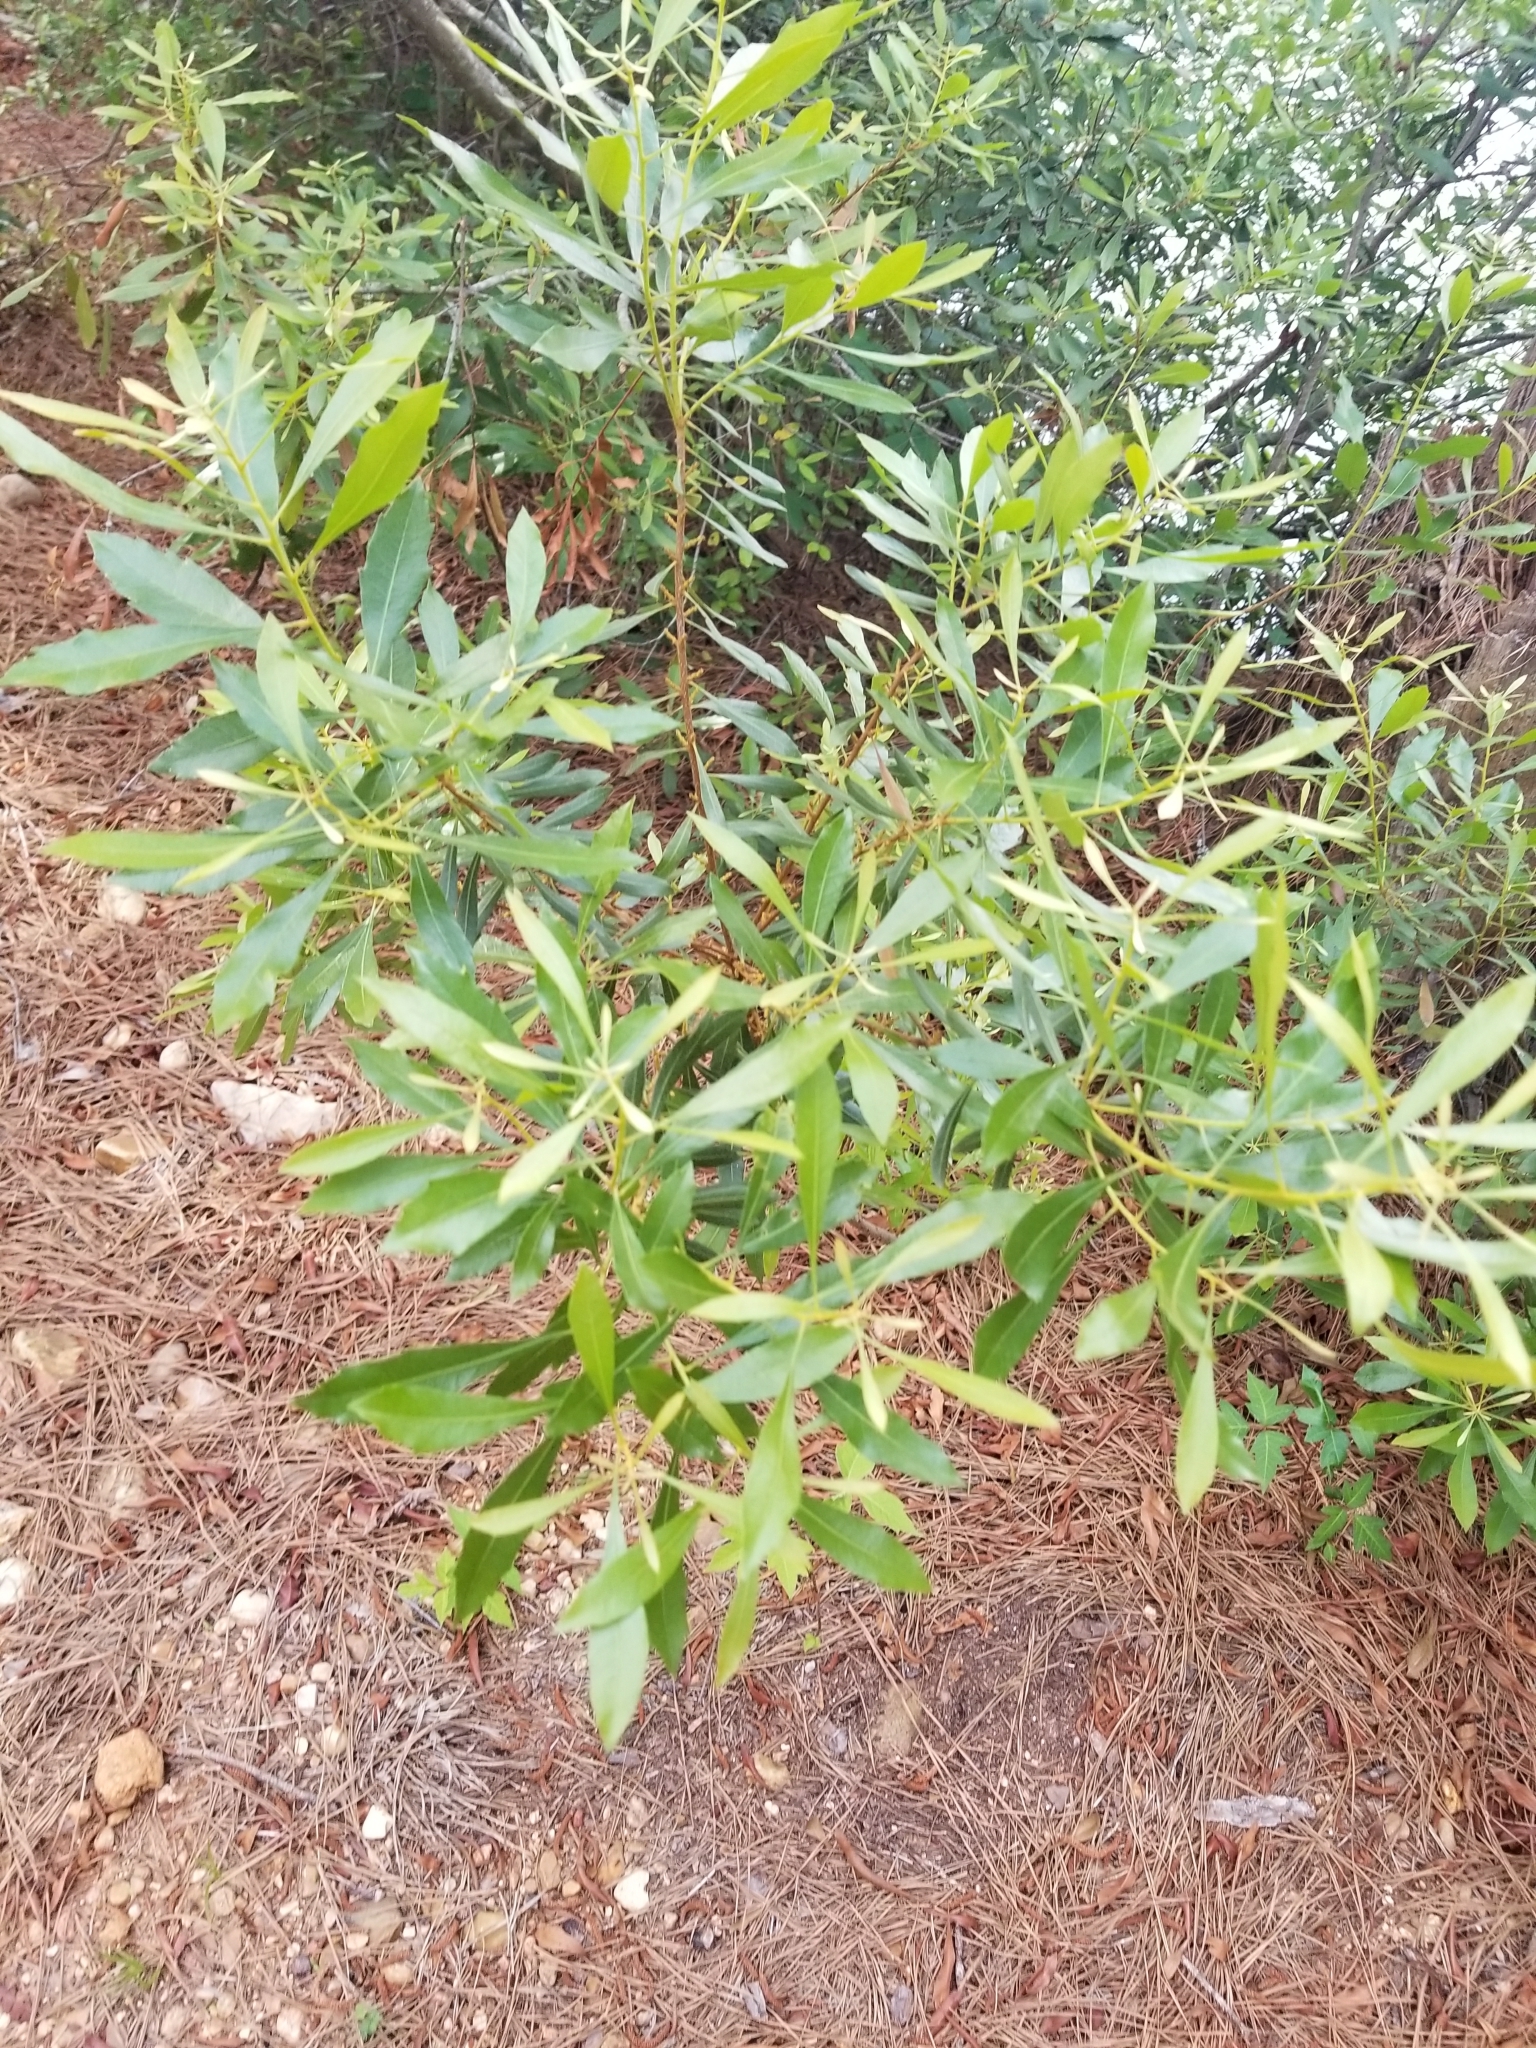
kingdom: Plantae
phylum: Tracheophyta
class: Magnoliopsida
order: Fagales
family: Myricaceae
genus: Morella
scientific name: Morella cerifera
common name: Wax myrtle
